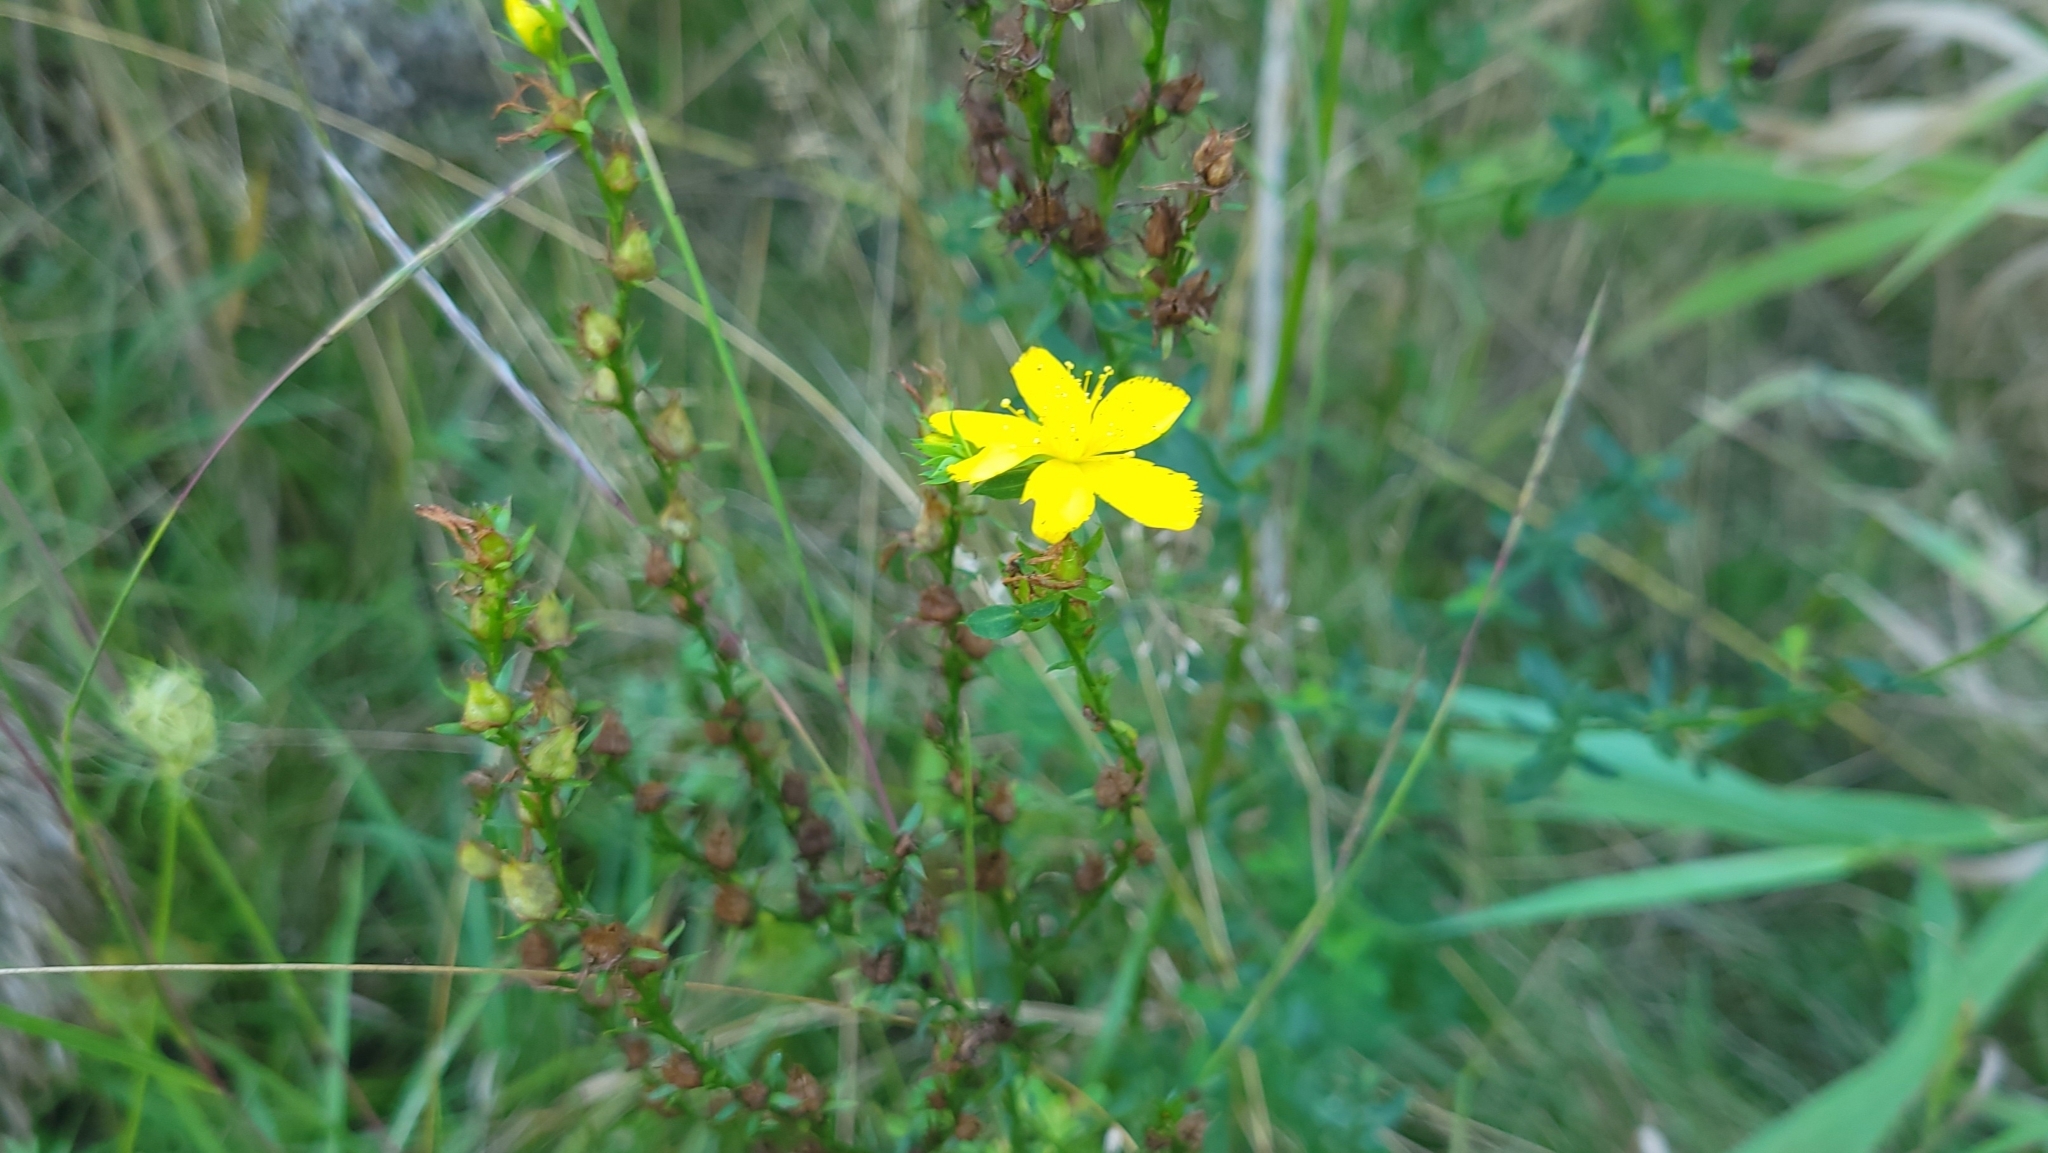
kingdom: Plantae
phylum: Tracheophyta
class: Magnoliopsida
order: Malpighiales
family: Hypericaceae
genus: Hypericum
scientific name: Hypericum perforatum
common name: Common st. johnswort
